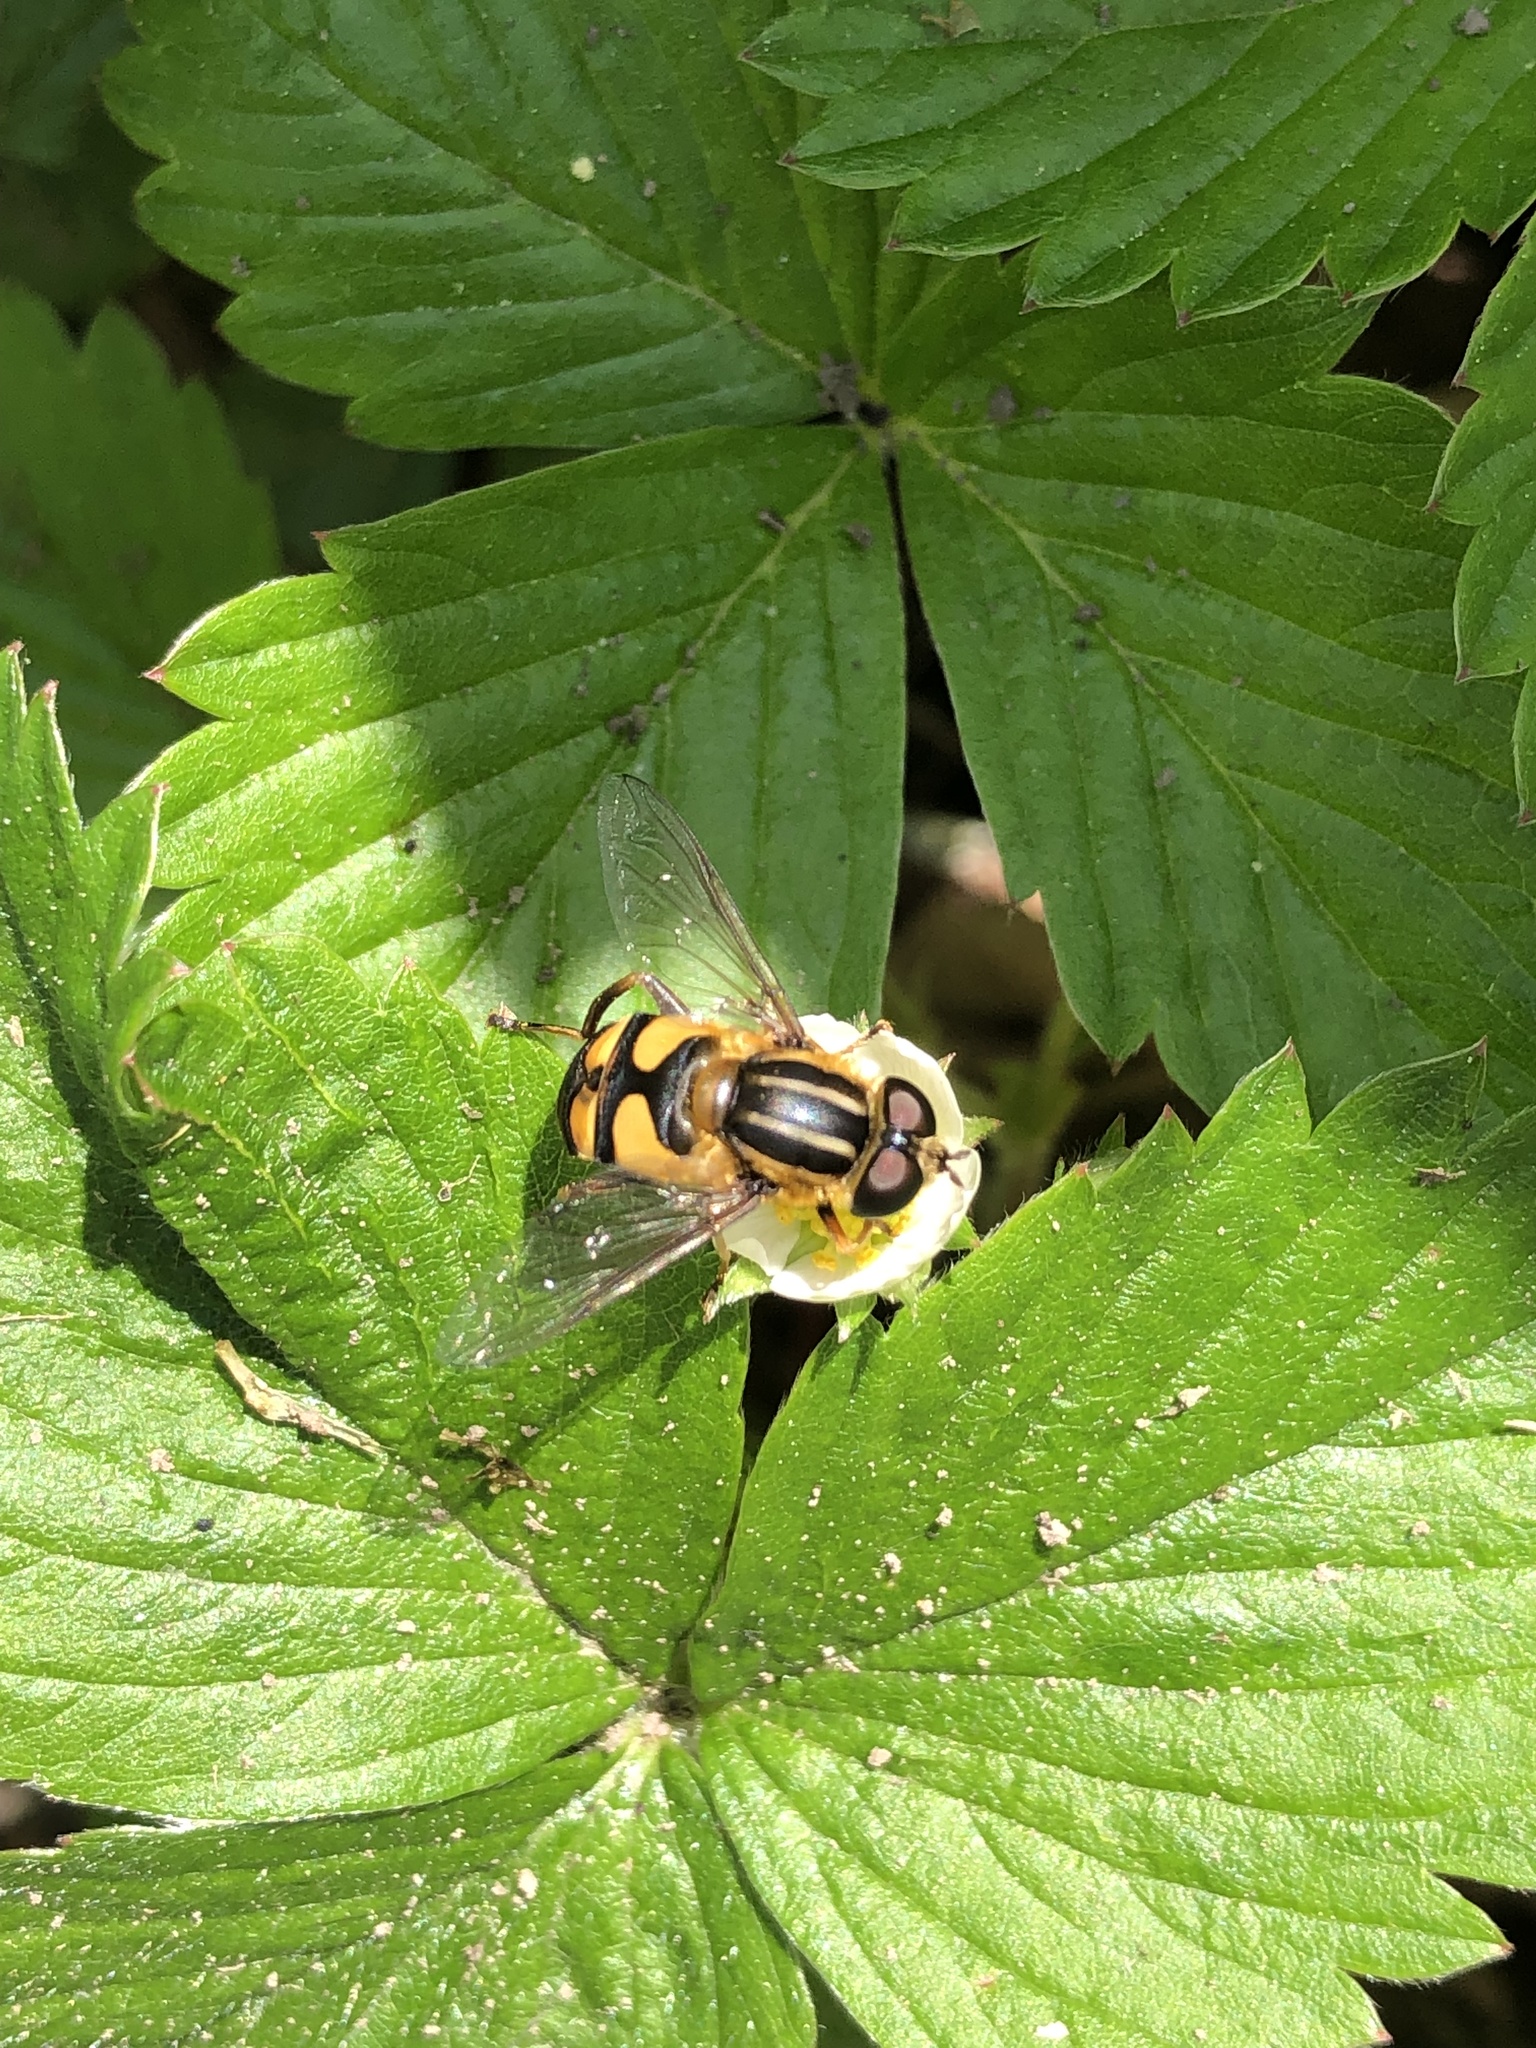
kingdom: Animalia
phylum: Arthropoda
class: Insecta
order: Diptera
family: Syrphidae
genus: Helophilus
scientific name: Helophilus fasciatus
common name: Narrow-headed marsh fly
